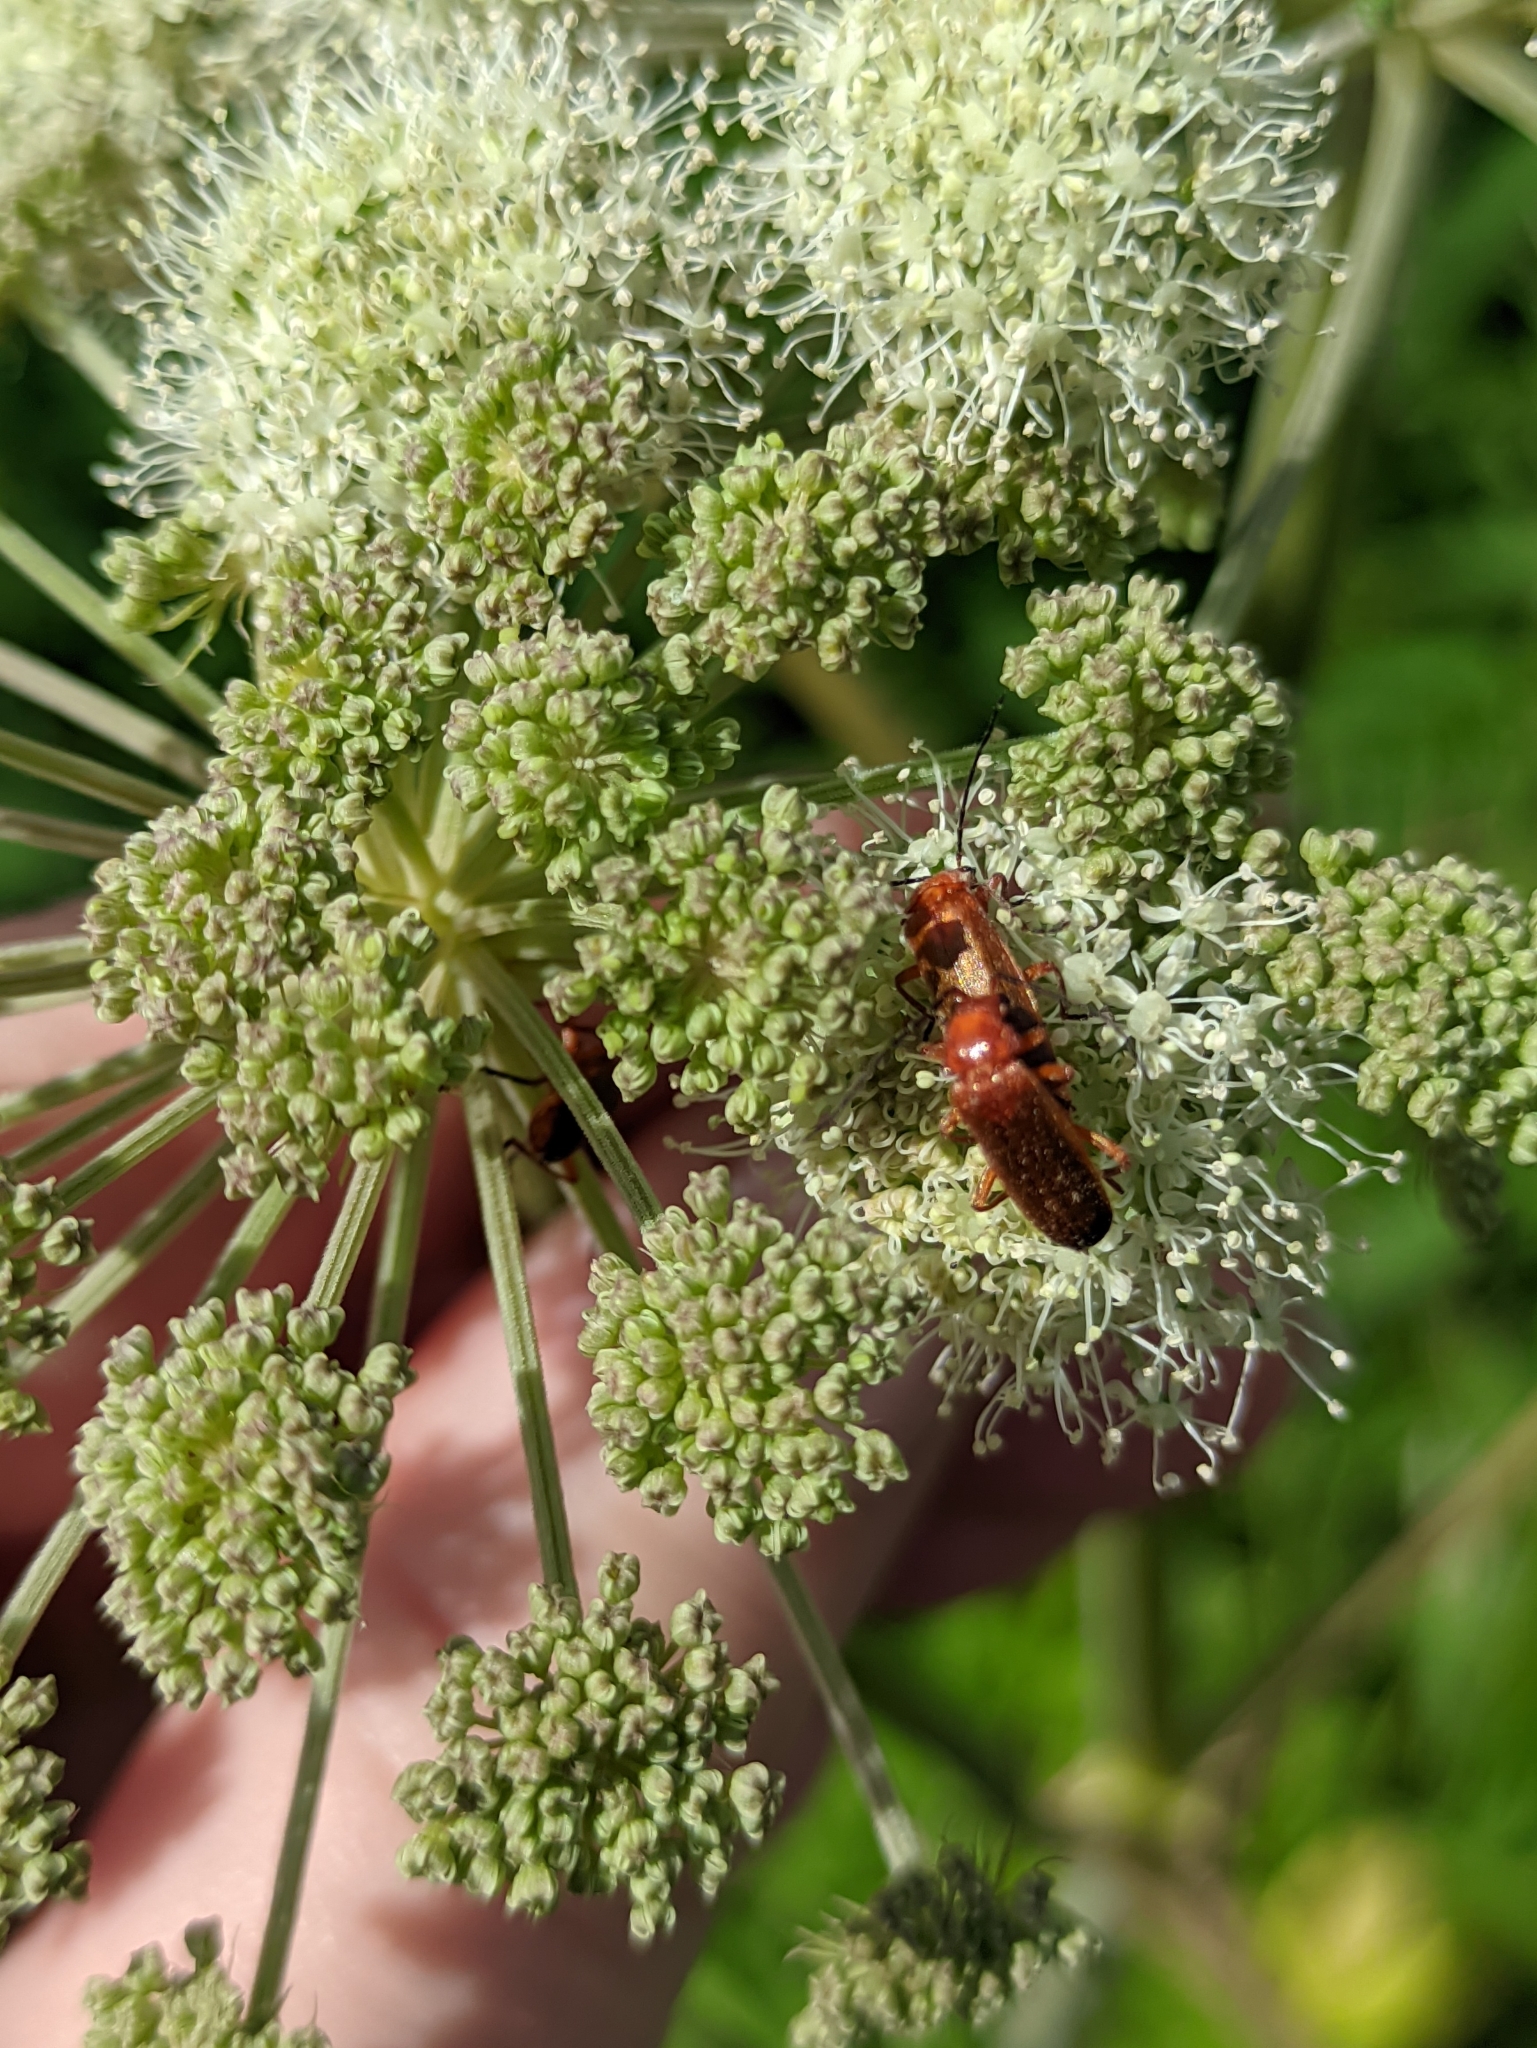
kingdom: Animalia
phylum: Arthropoda
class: Insecta
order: Coleoptera
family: Cantharidae
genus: Rhagonycha
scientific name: Rhagonycha fulva
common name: Common red soldier beetle
